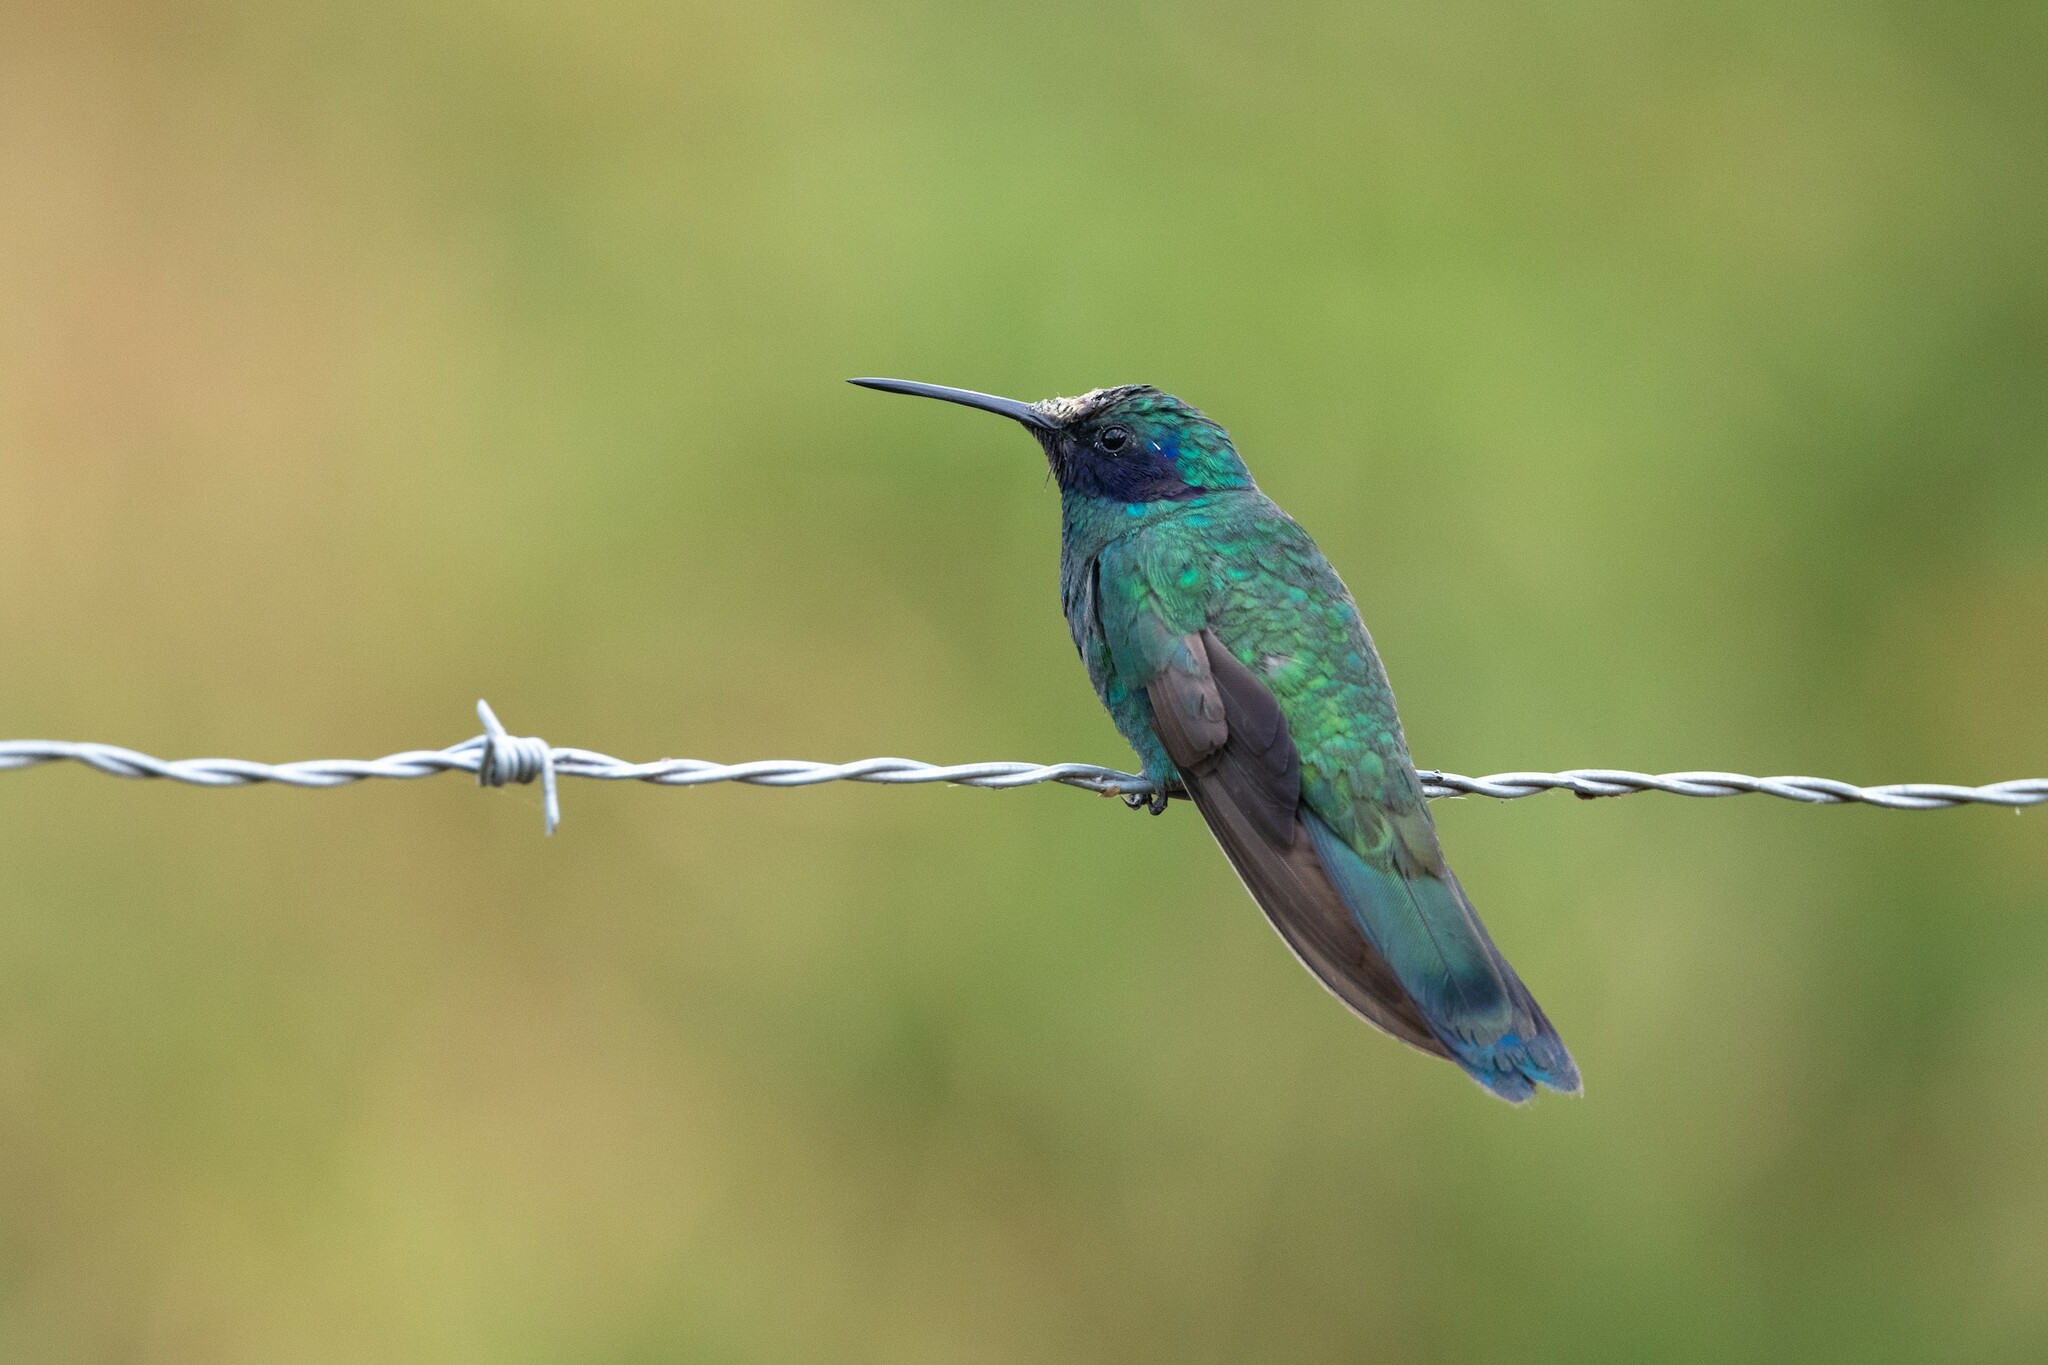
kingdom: Animalia
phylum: Chordata
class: Aves
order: Apodiformes
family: Trochilidae
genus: Colibri
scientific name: Colibri coruscans
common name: Sparkling violetear
